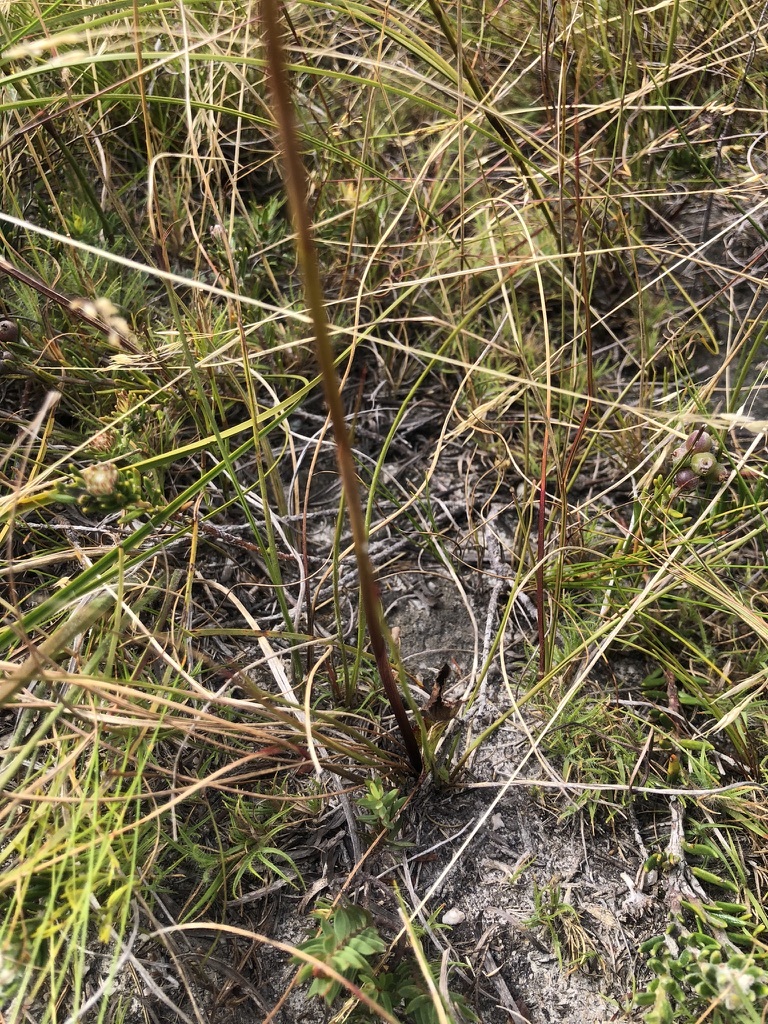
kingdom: Plantae
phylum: Tracheophyta
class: Liliopsida
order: Asparagales
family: Orchidaceae
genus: Disa
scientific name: Disa venusta
